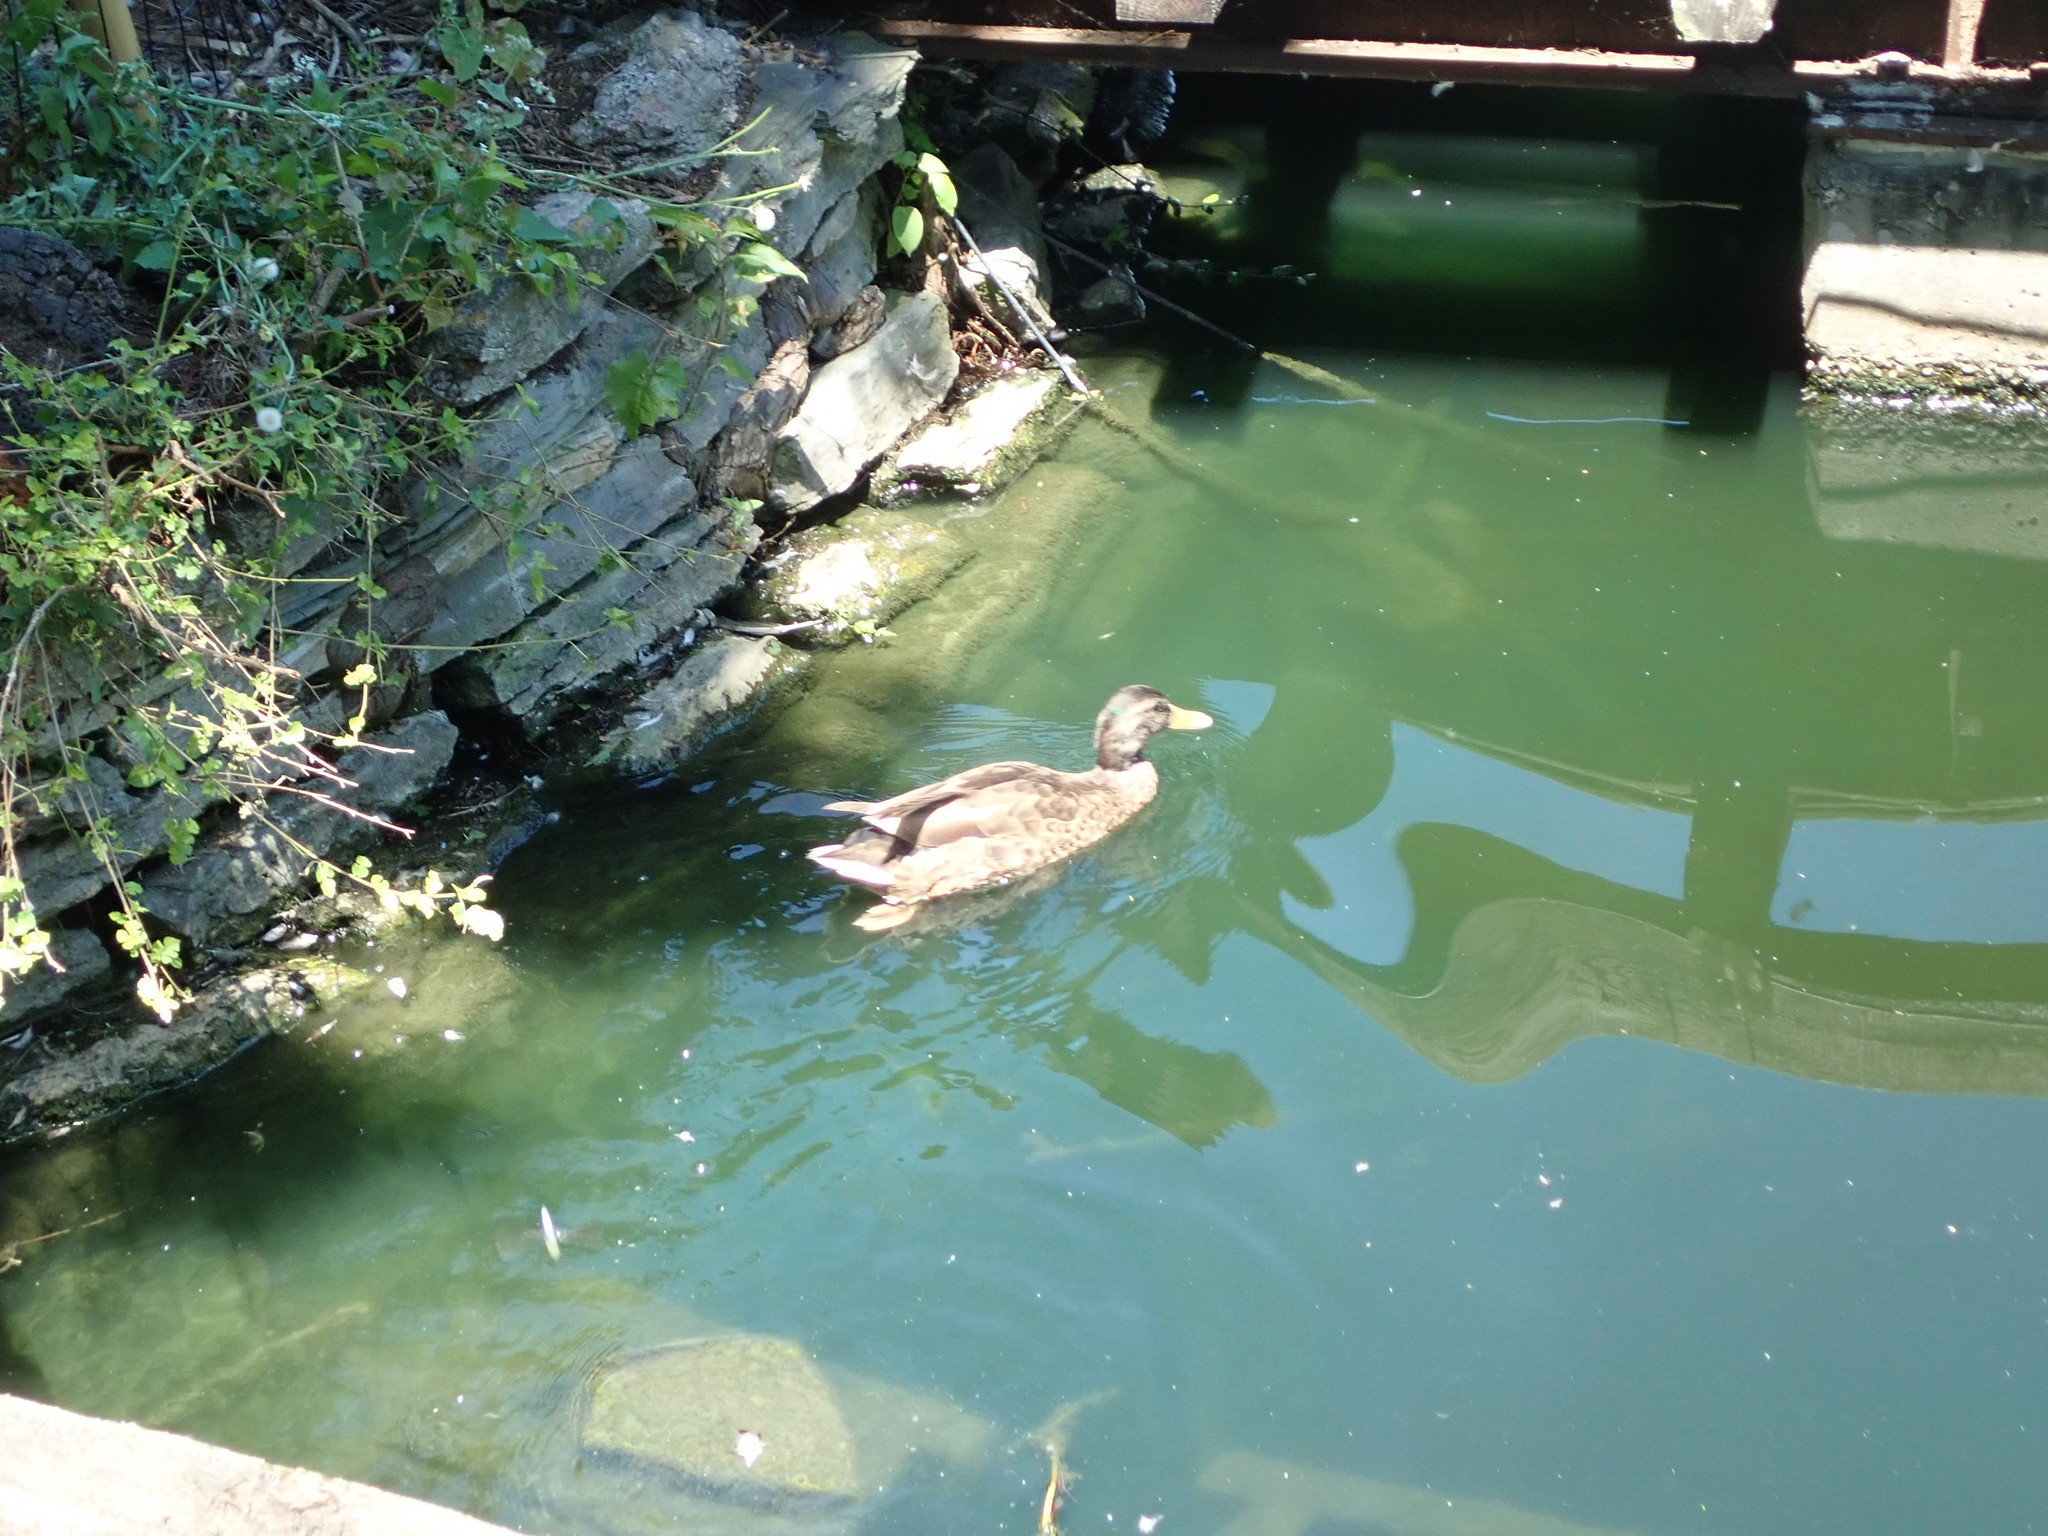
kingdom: Animalia
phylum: Chordata
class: Aves
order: Anseriformes
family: Anatidae
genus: Anas
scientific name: Anas platyrhynchos
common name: Mallard
